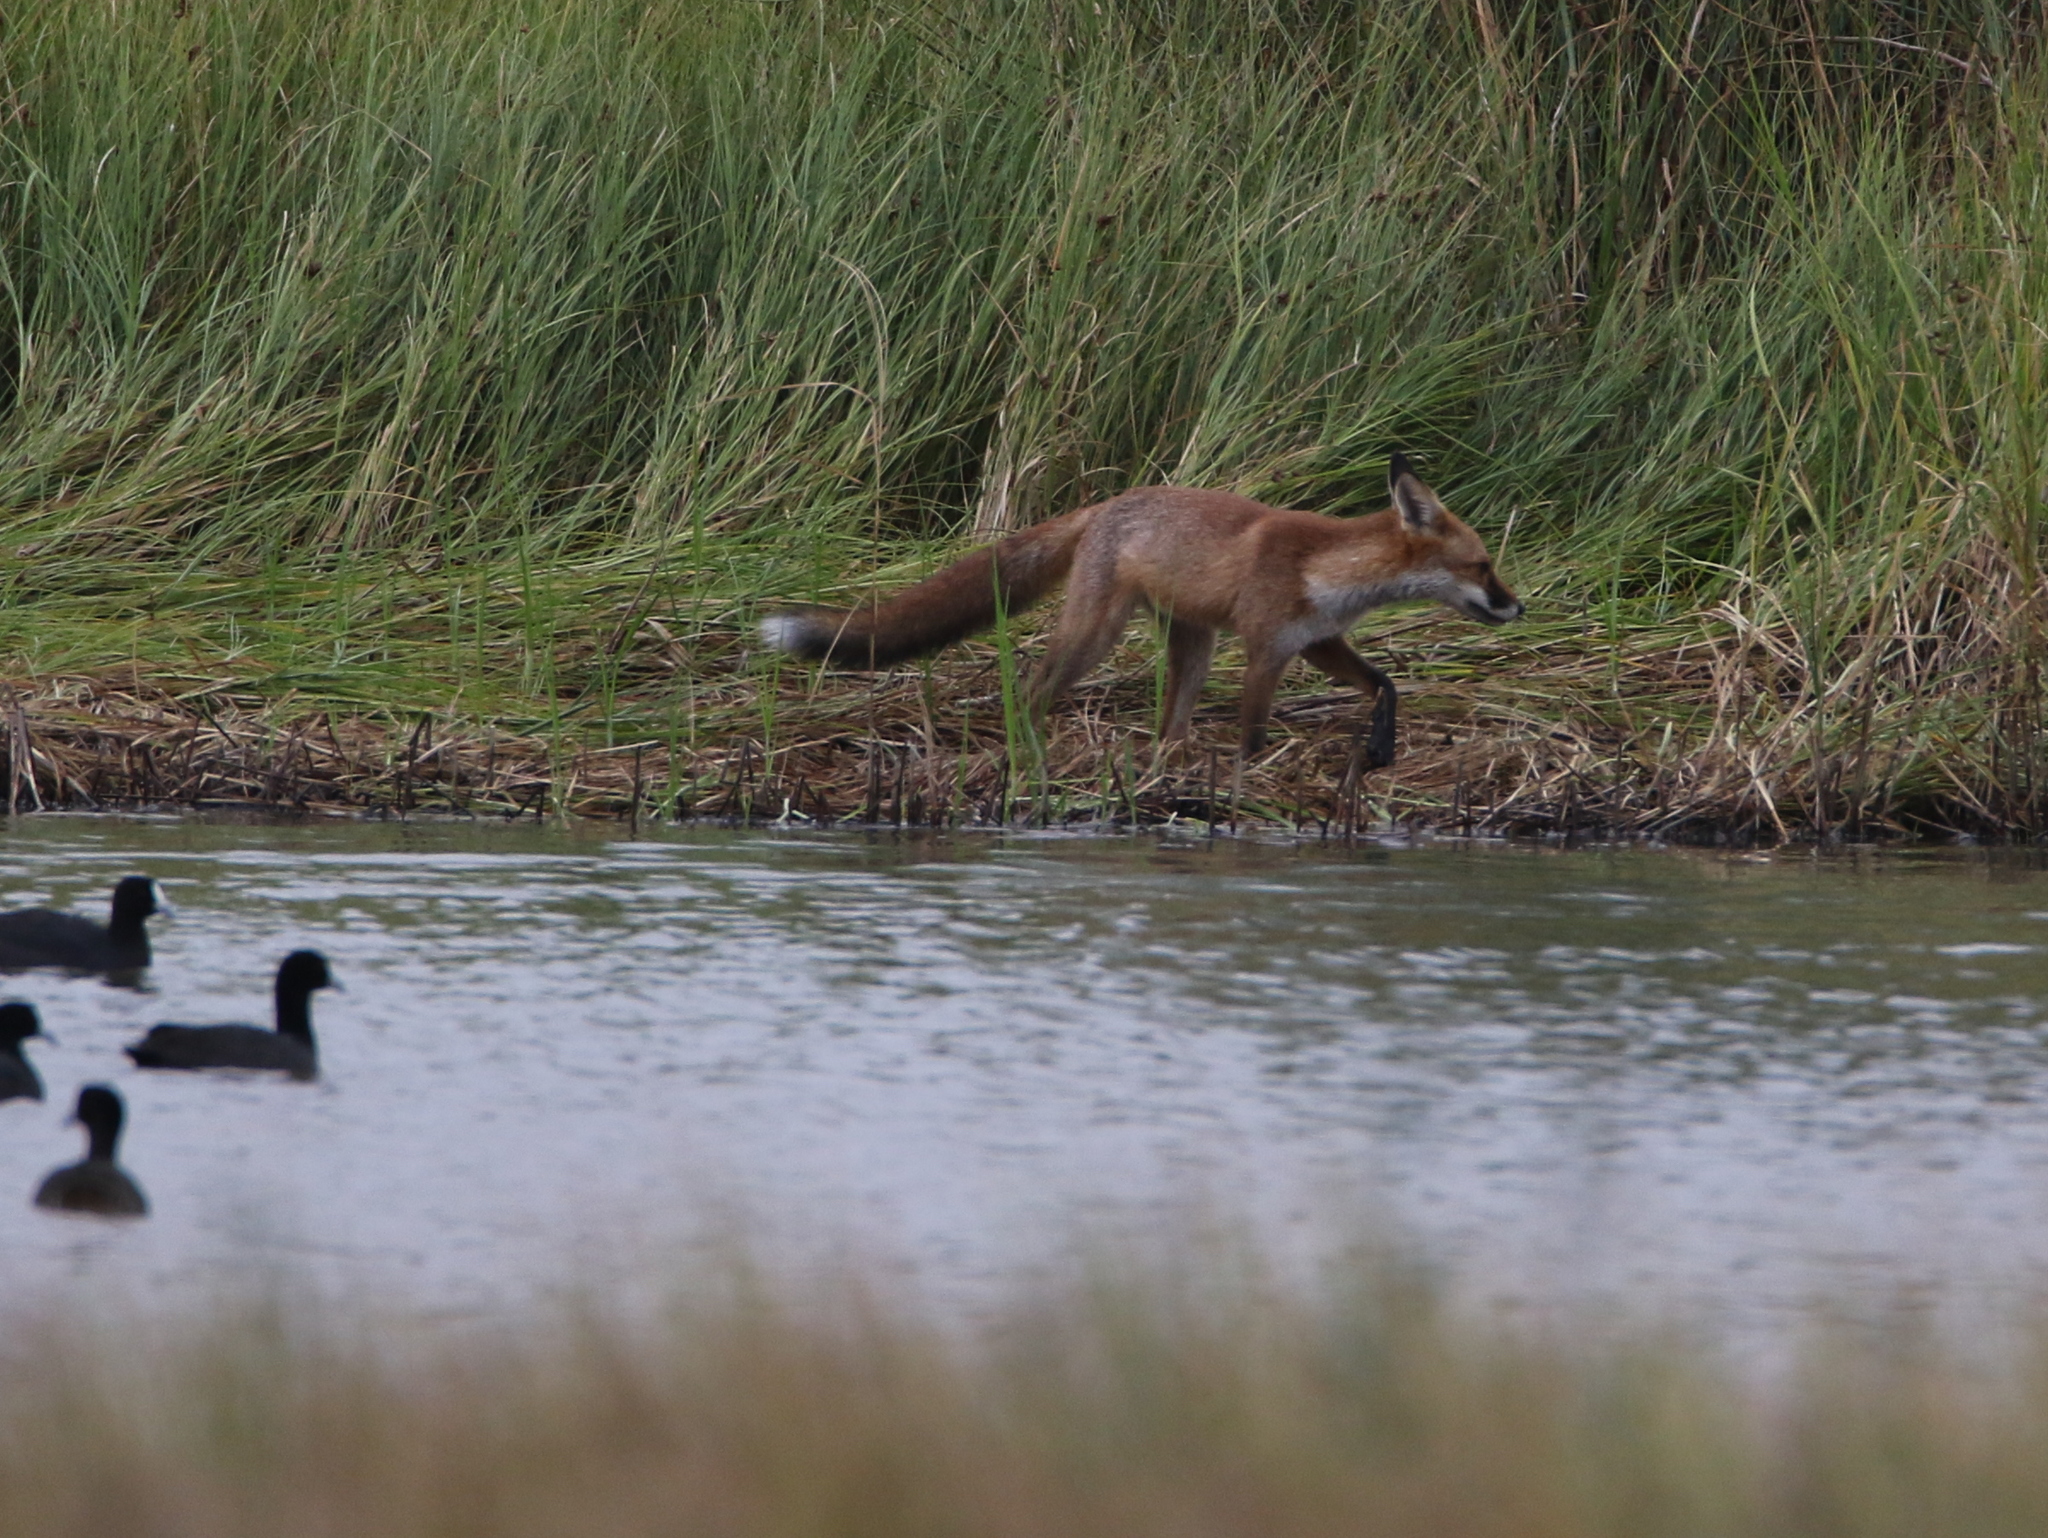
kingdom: Animalia
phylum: Chordata
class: Mammalia
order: Carnivora
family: Canidae
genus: Vulpes
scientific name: Vulpes vulpes
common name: Red fox
